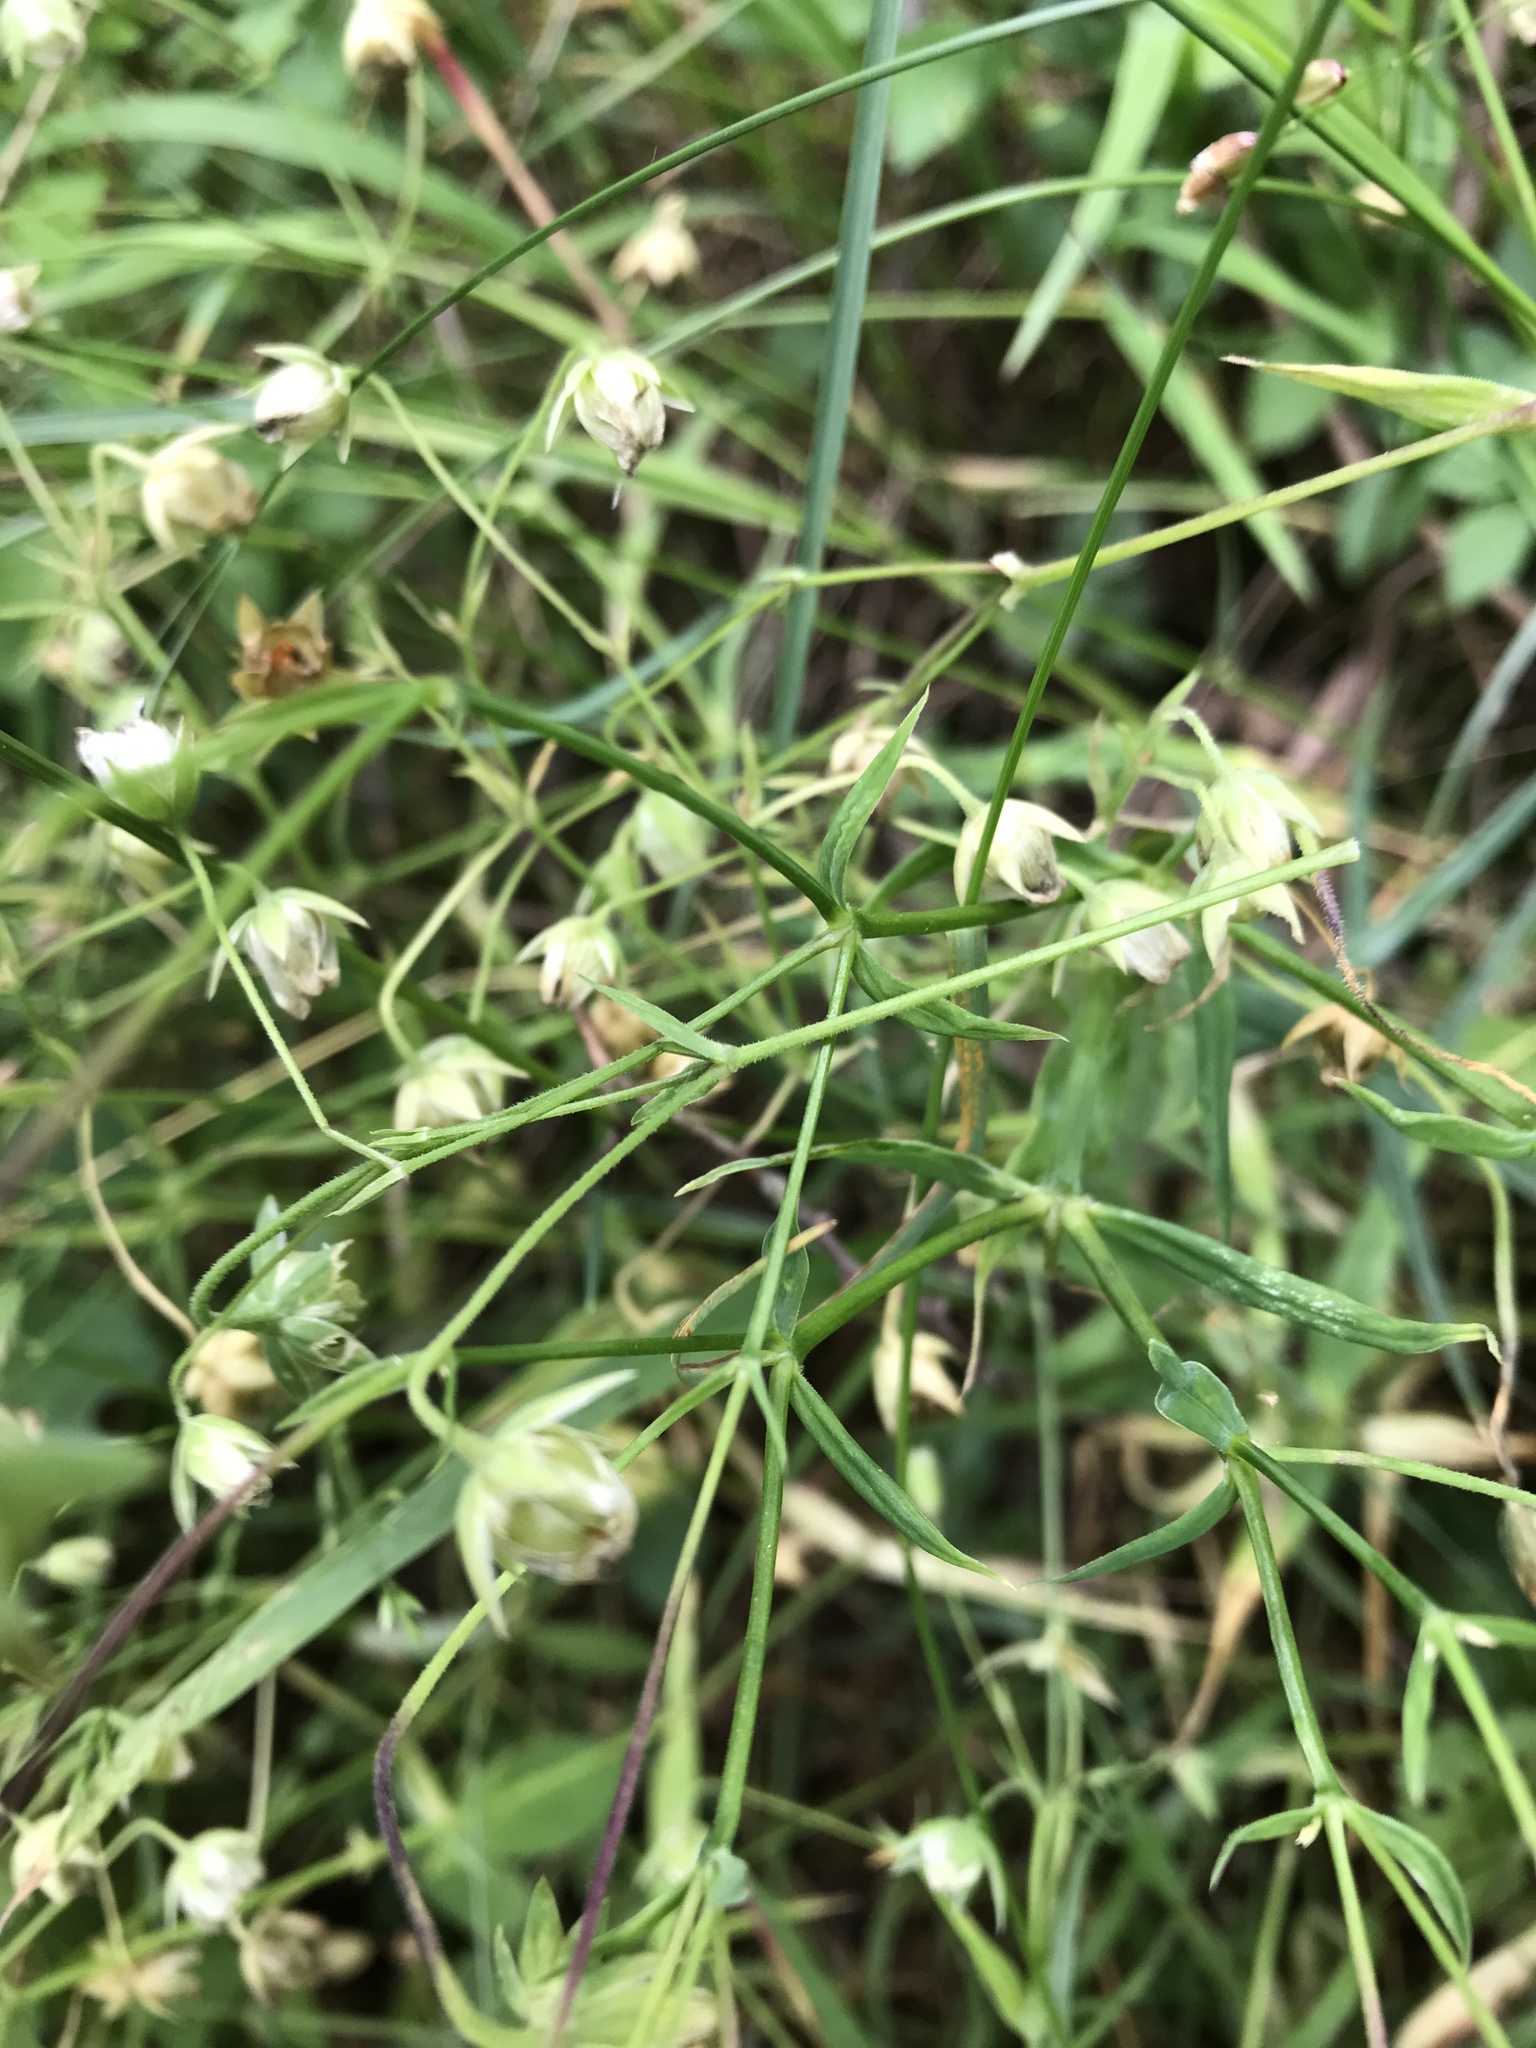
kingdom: Plantae
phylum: Tracheophyta
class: Magnoliopsida
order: Caryophyllales
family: Caryophyllaceae
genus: Rabelera
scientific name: Rabelera holostea
